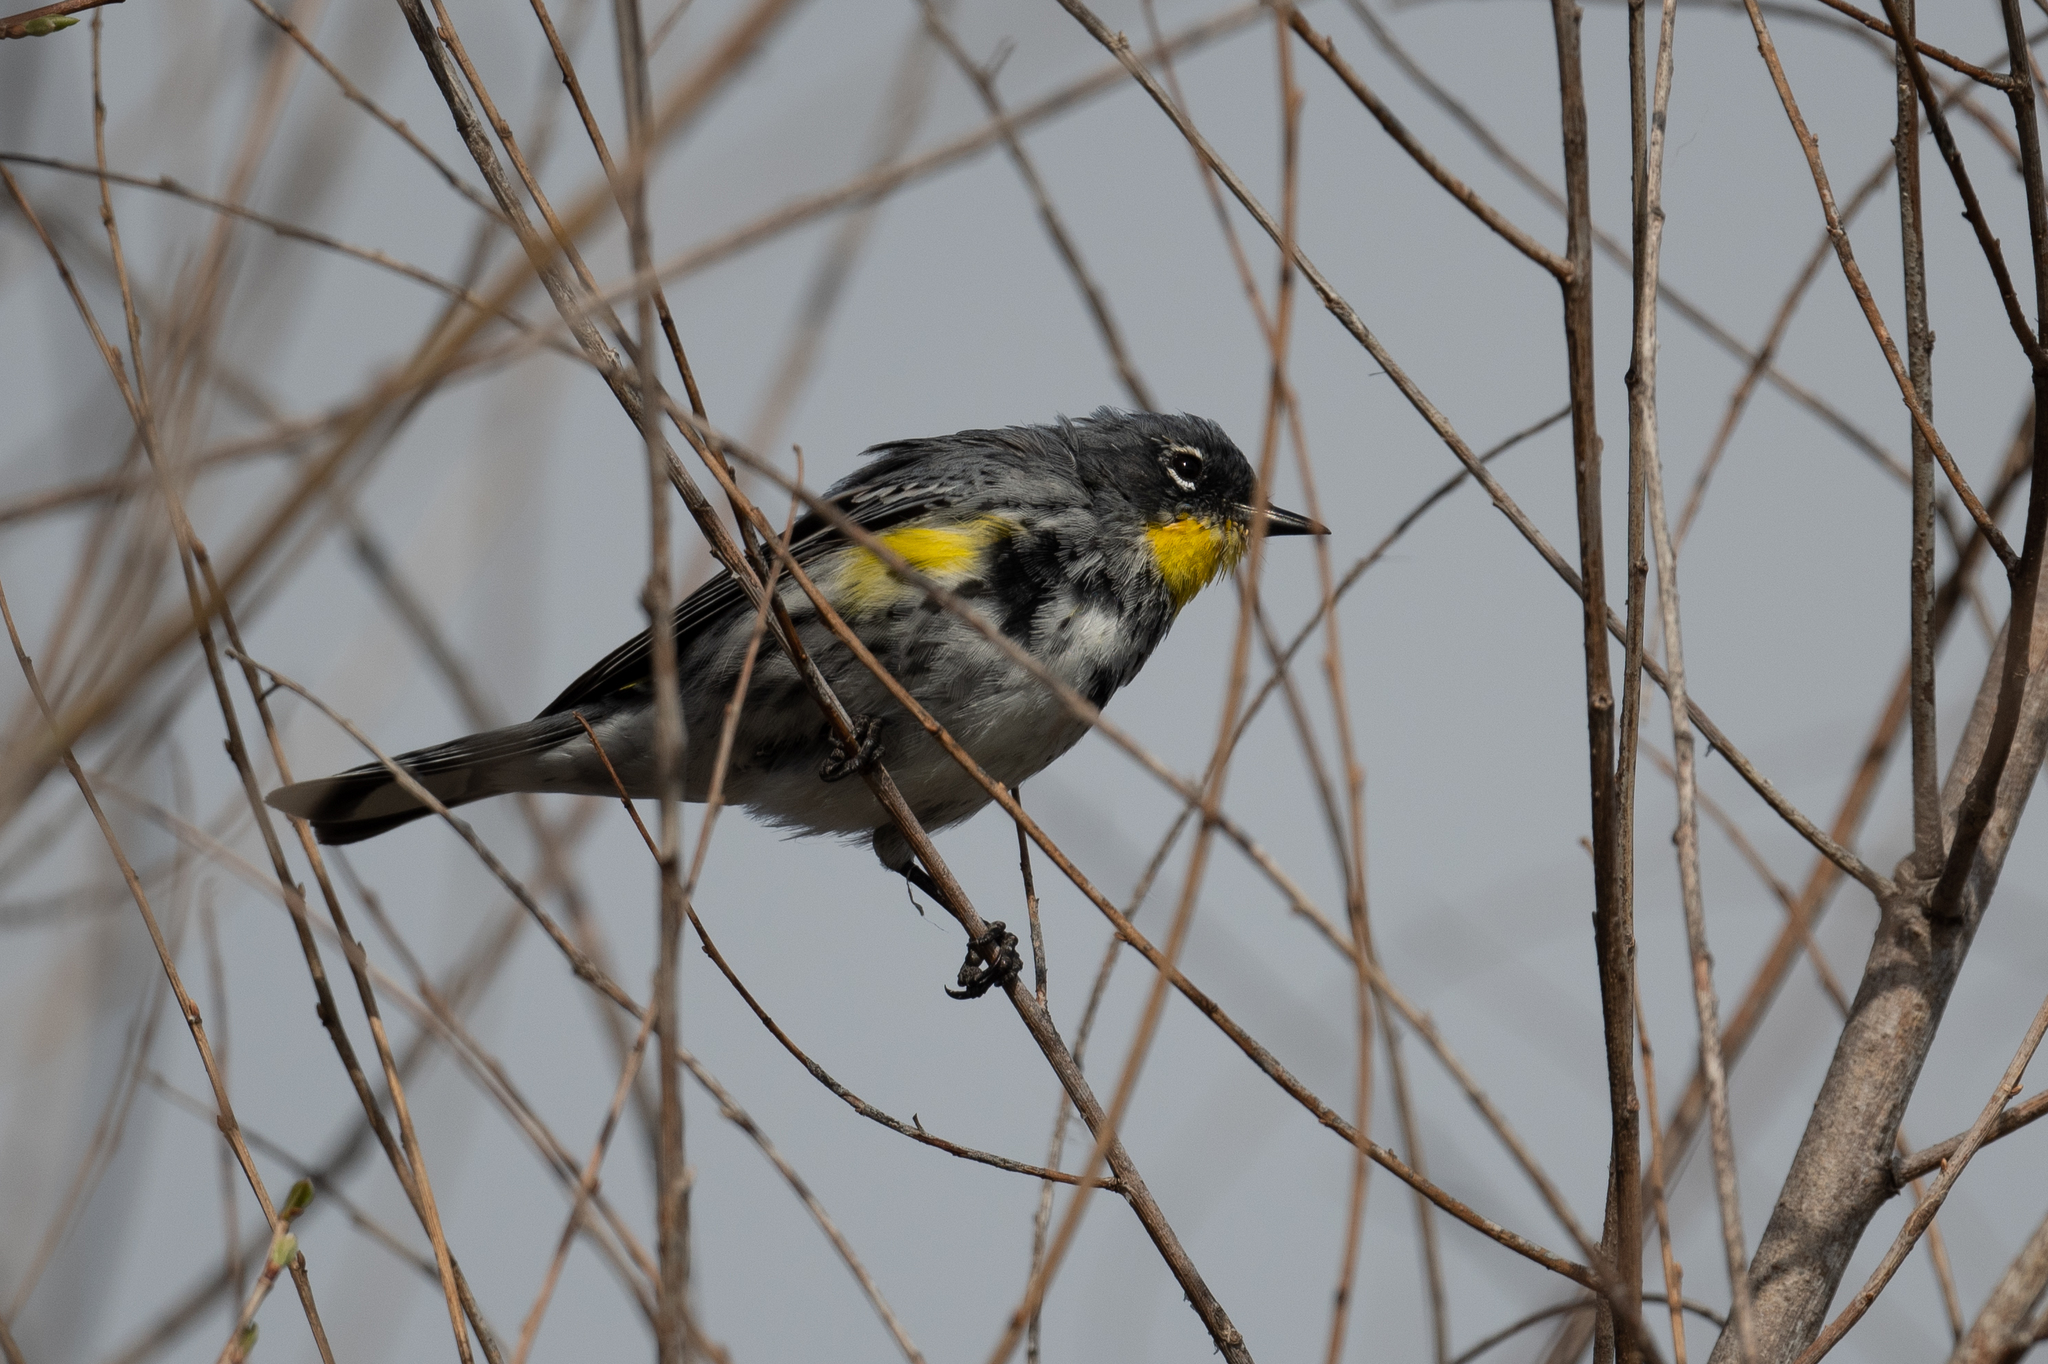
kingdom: Animalia
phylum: Chordata
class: Aves
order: Passeriformes
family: Parulidae
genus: Setophaga
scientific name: Setophaga coronata
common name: Myrtle warbler
